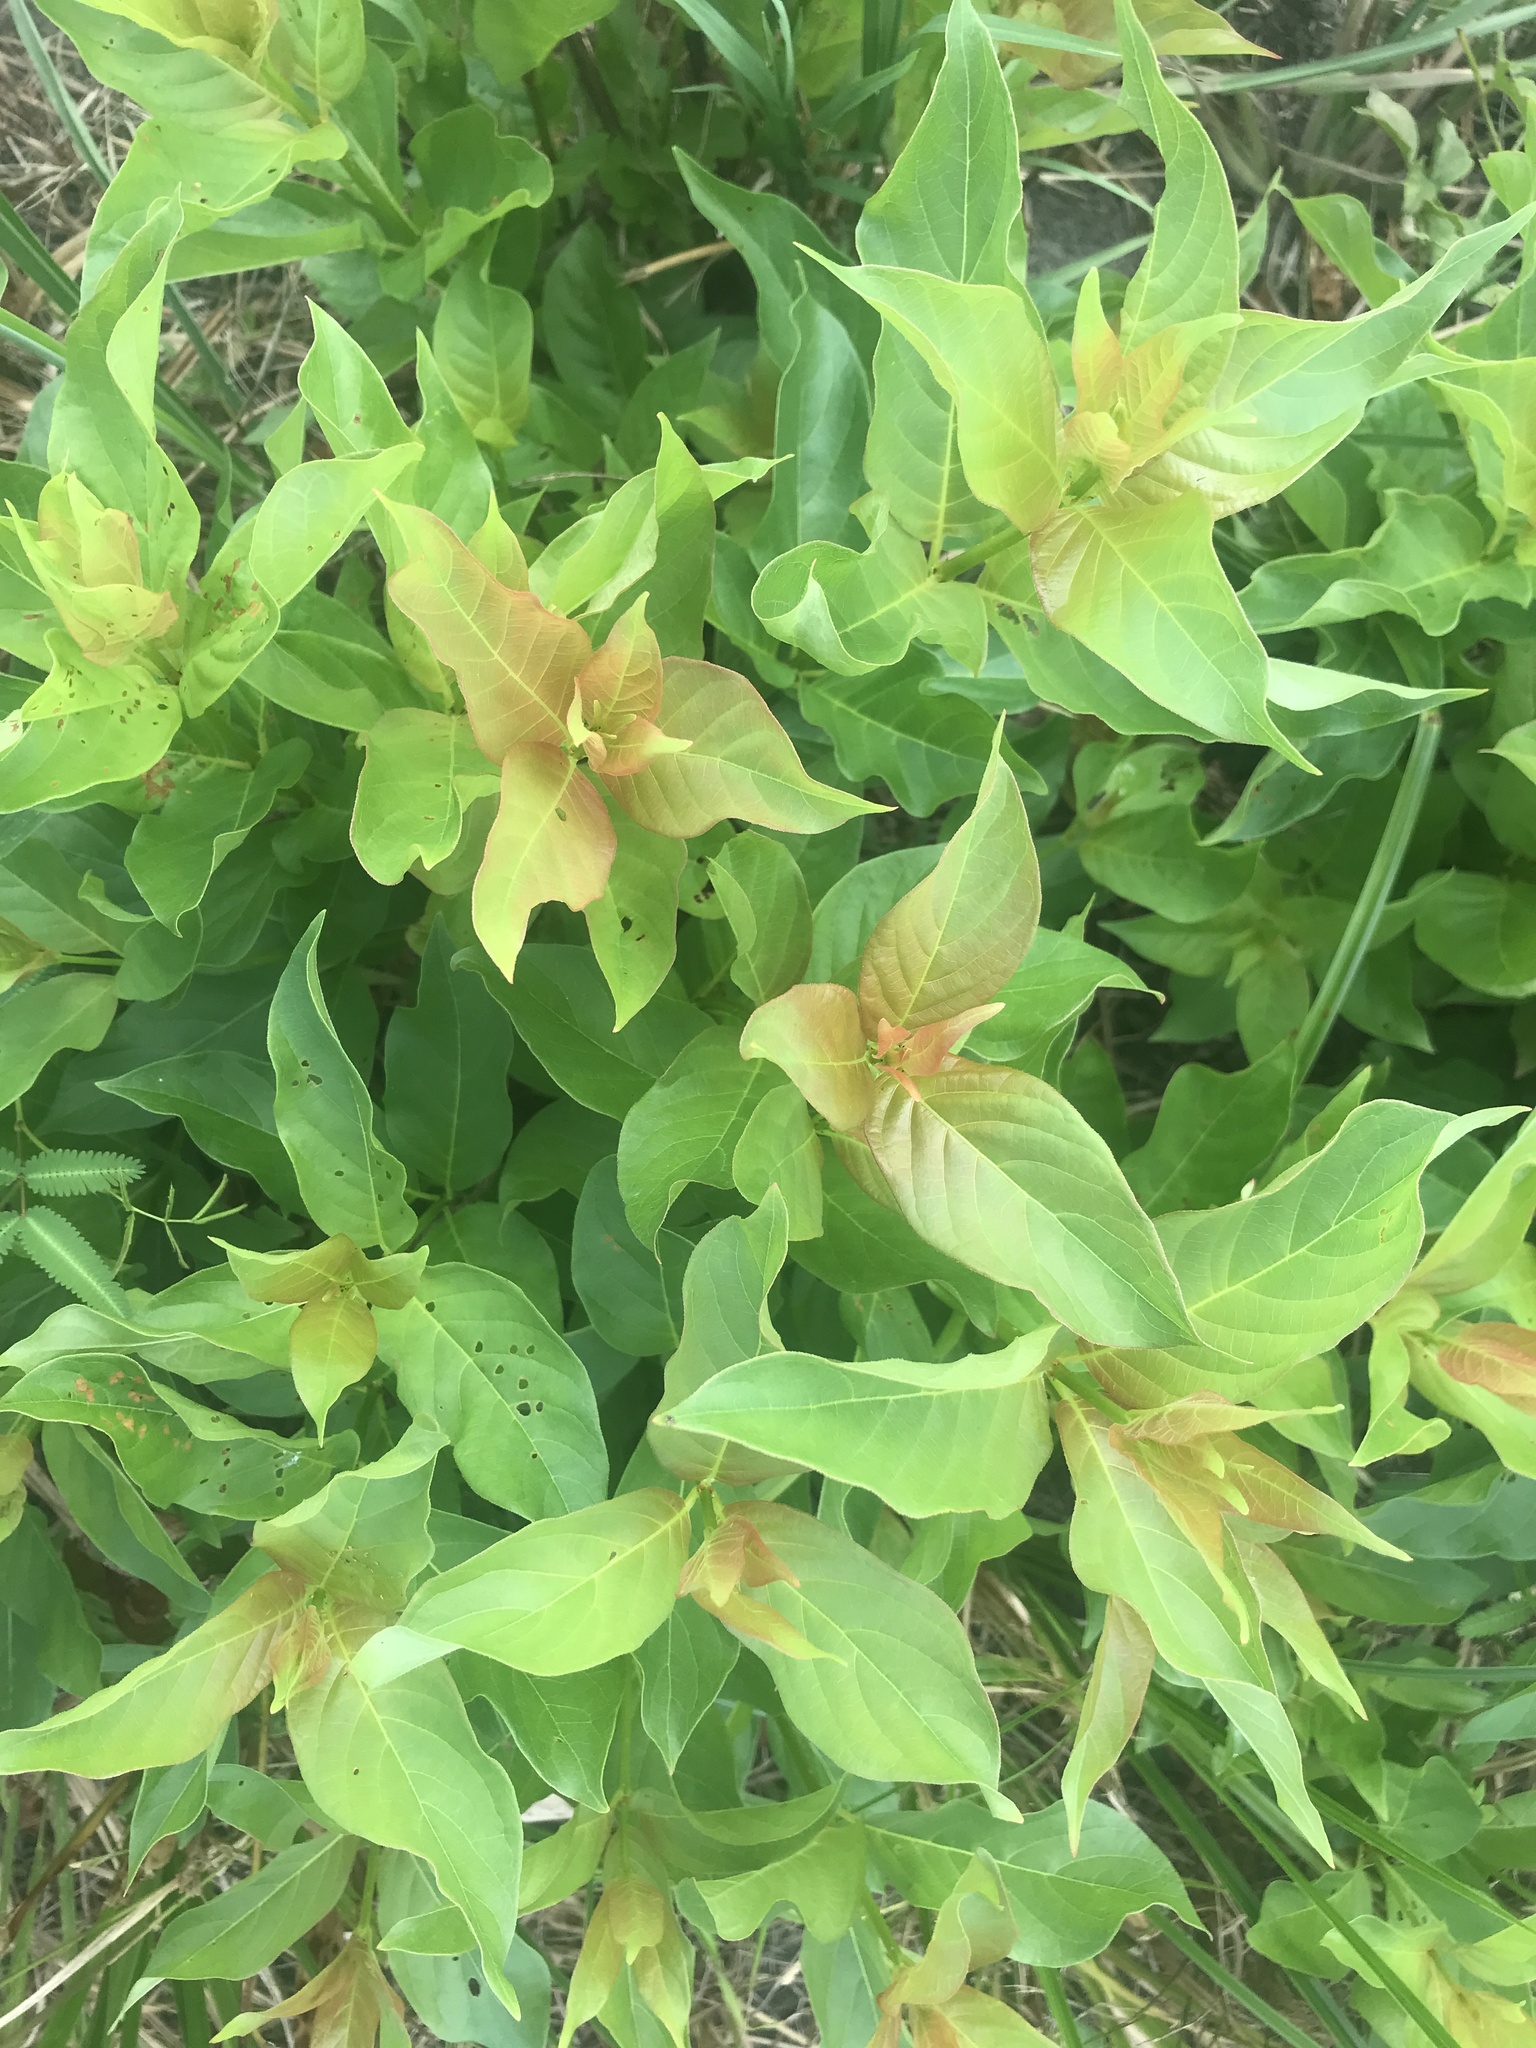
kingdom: Plantae
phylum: Tracheophyta
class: Magnoliopsida
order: Gentianales
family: Rubiaceae
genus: Cephalanthus
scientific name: Cephalanthus occidentalis
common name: Button-willow
